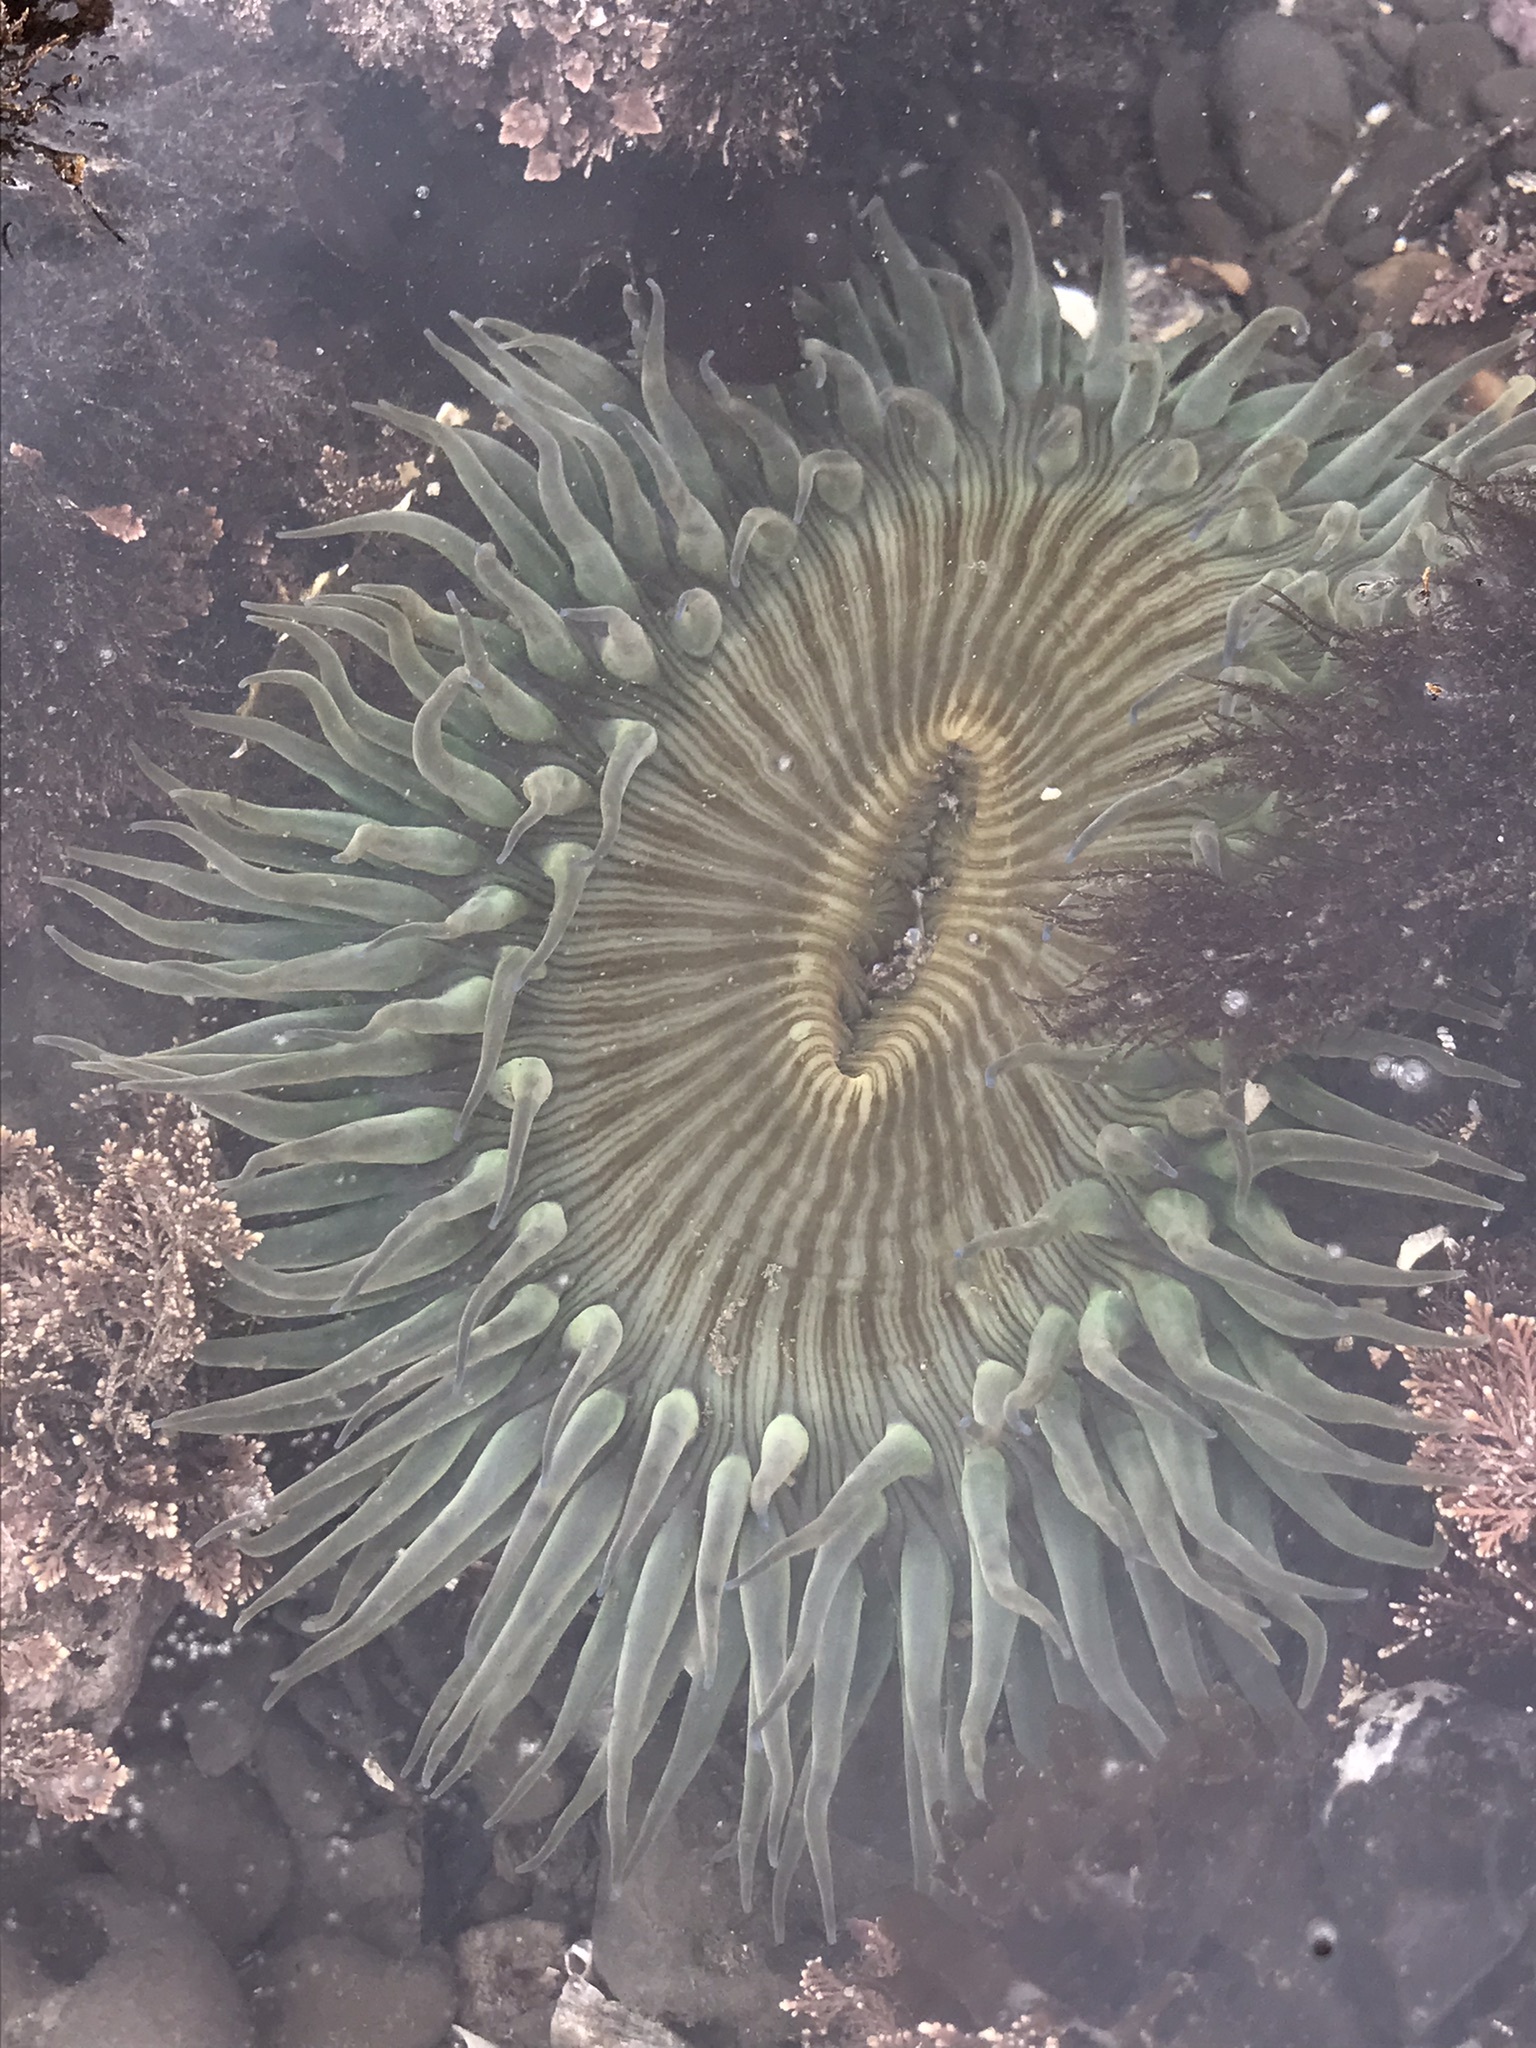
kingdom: Animalia
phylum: Cnidaria
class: Anthozoa
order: Actiniaria
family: Actiniidae
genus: Anthopleura
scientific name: Anthopleura sola
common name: Sun anemone
